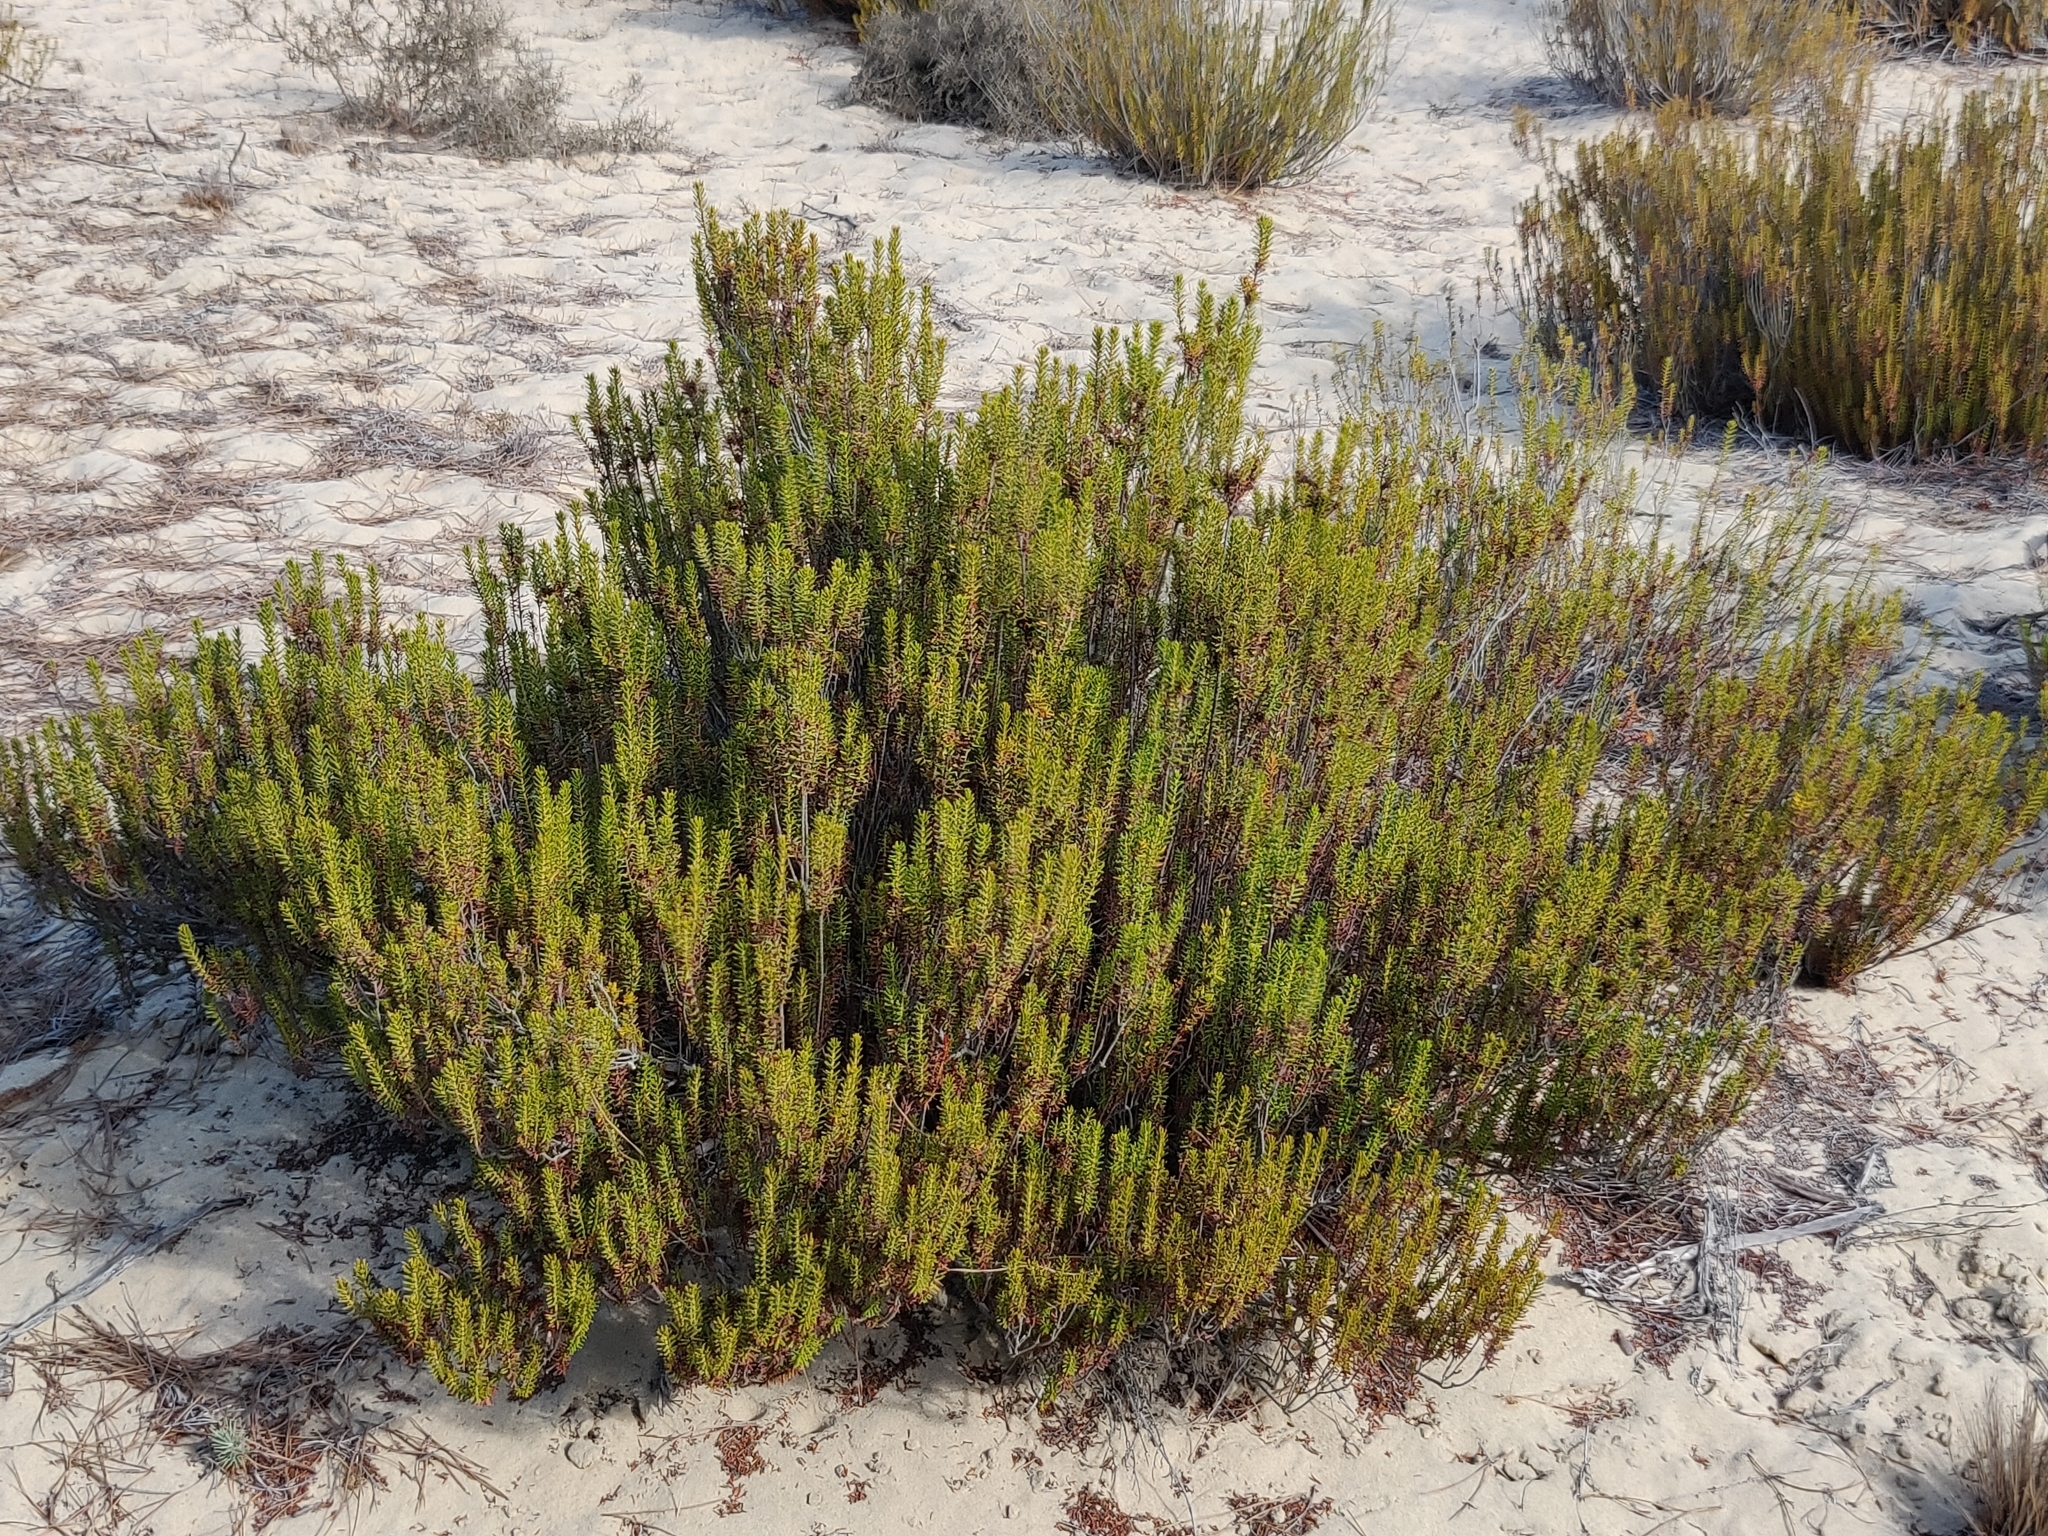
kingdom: Plantae
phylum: Tracheophyta
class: Magnoliopsida
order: Ericales
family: Ericaceae
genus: Corema
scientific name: Corema album
